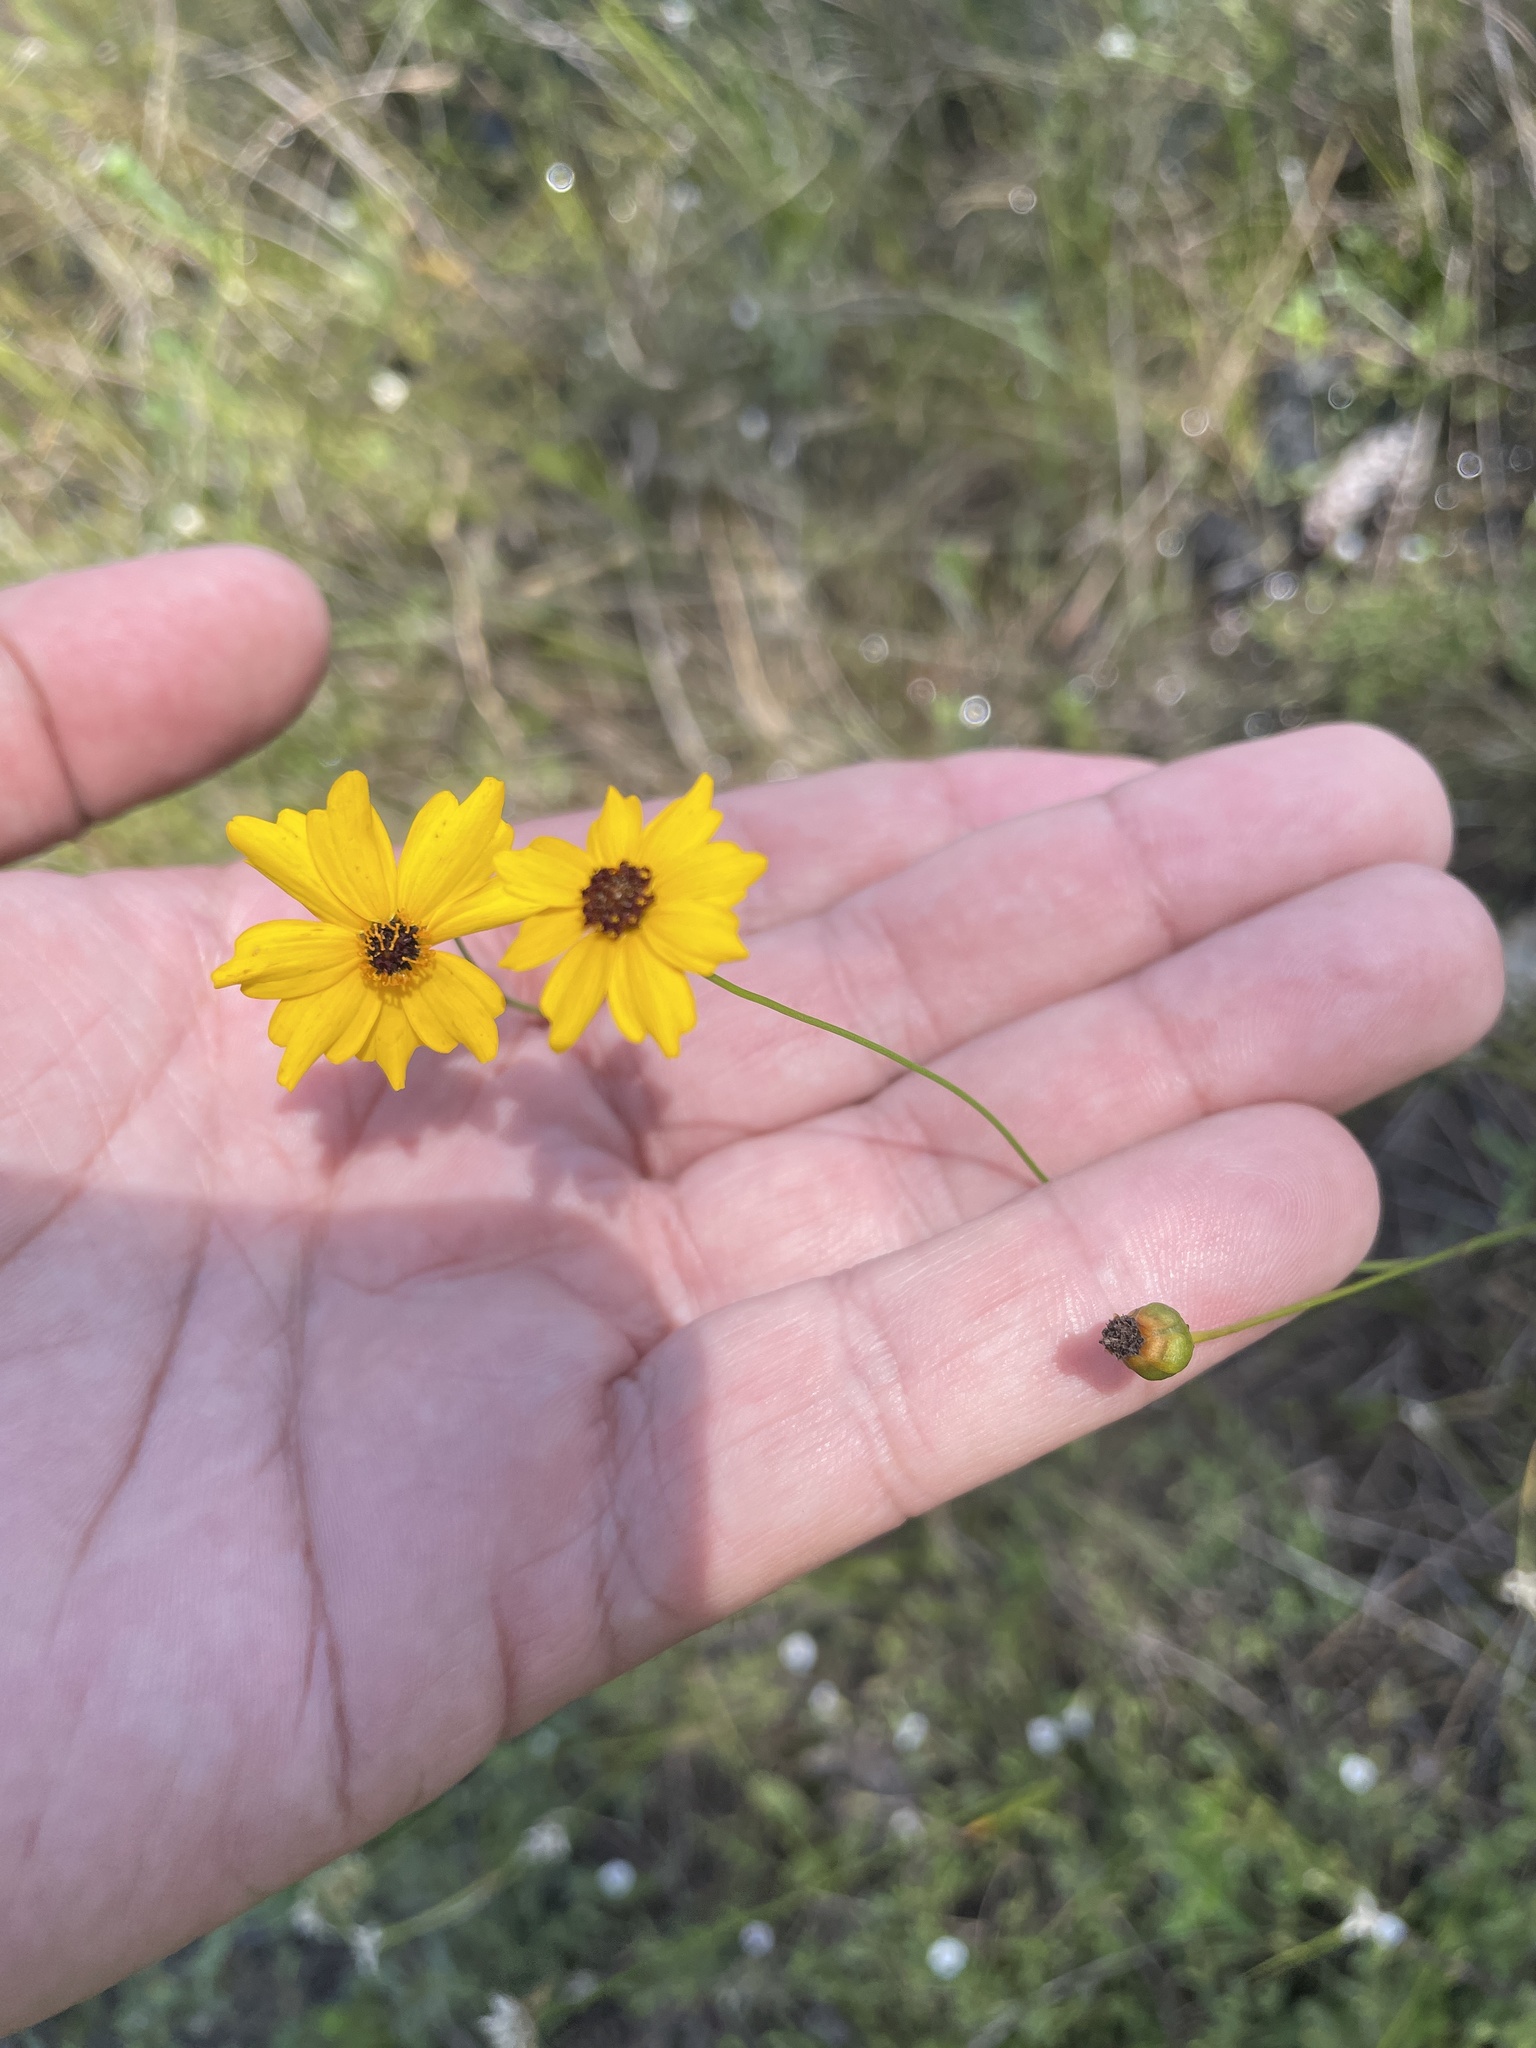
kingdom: Plantae
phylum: Tracheophyta
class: Magnoliopsida
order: Asterales
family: Asteraceae
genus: Coreopsis
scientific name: Coreopsis leavenworthii
